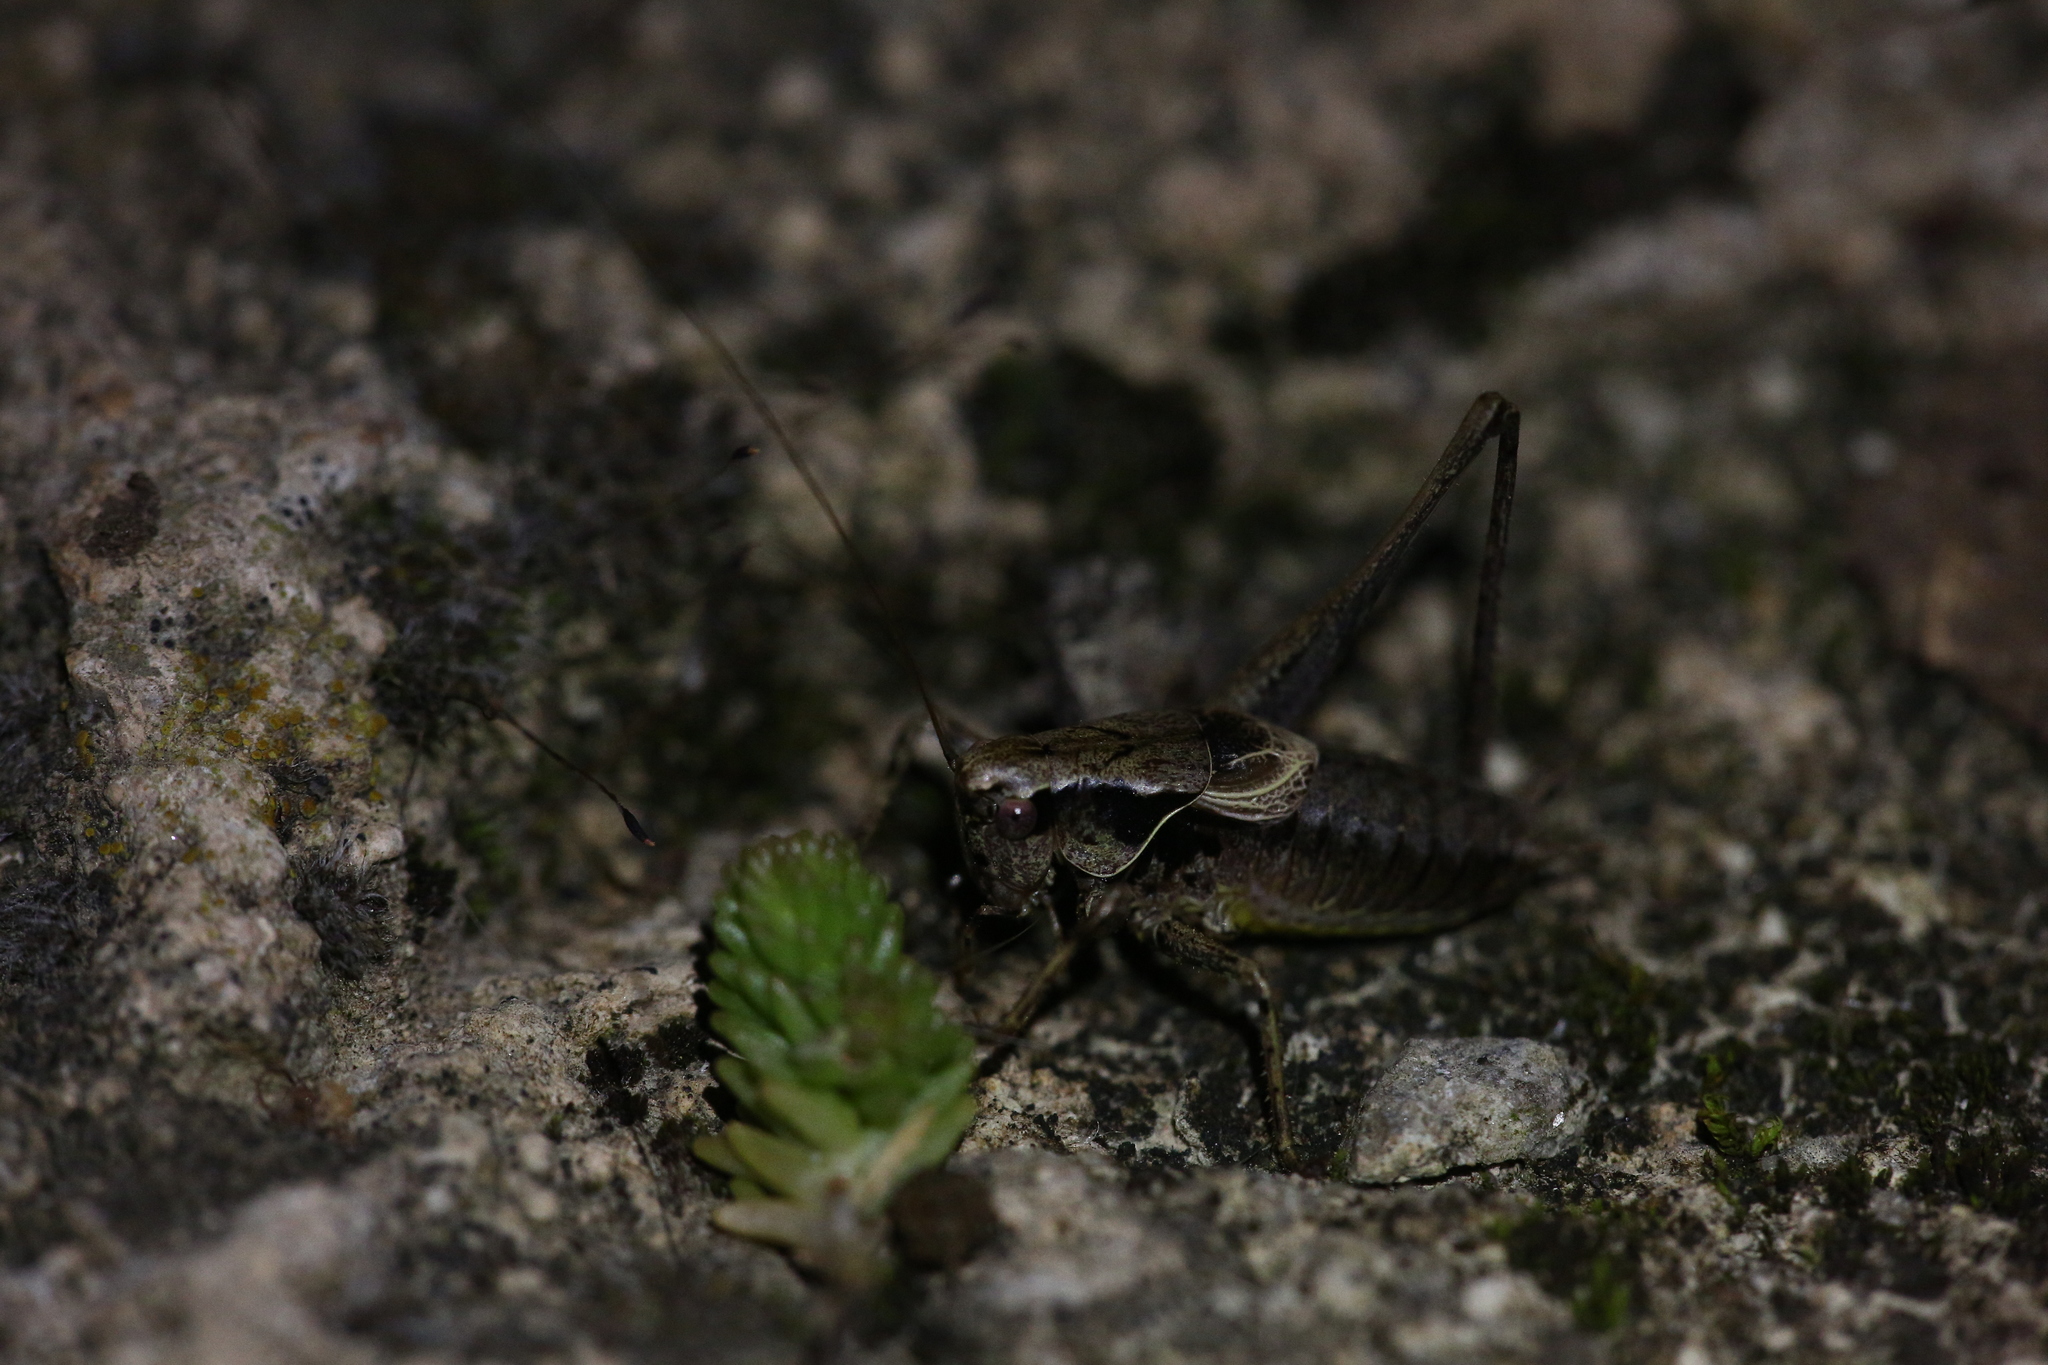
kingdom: Animalia
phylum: Arthropoda
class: Insecta
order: Orthoptera
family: Tettigoniidae
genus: Pholidoptera
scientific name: Pholidoptera griseoaptera
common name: Dark bush-cricket
